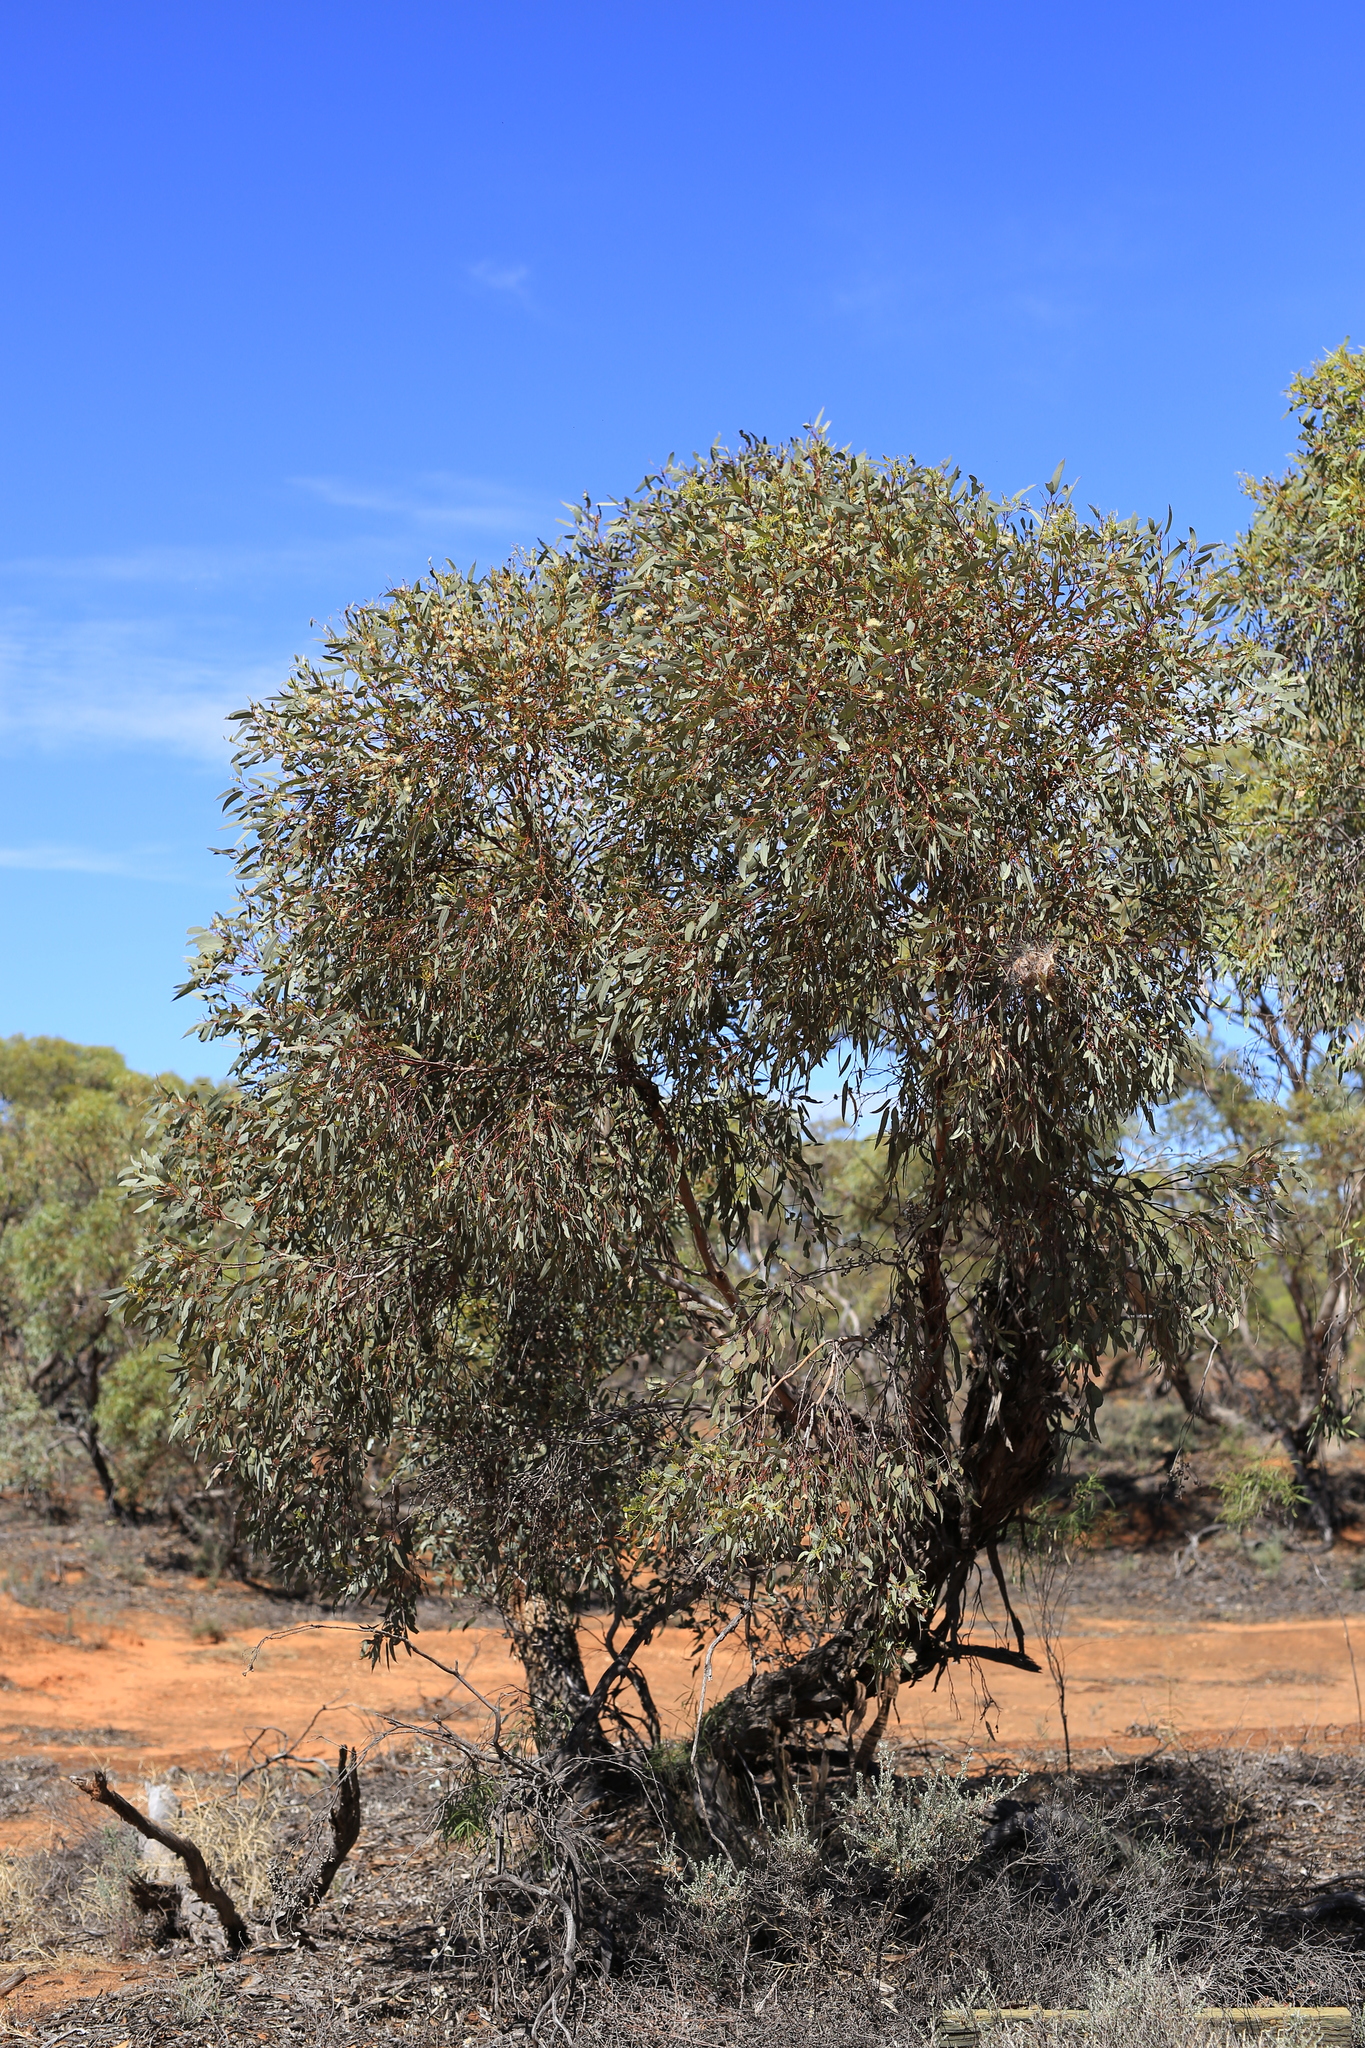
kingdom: Plantae
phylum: Tracheophyta
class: Magnoliopsida
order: Myrtales
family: Myrtaceae
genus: Eucalyptus
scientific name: Eucalyptus socialis
